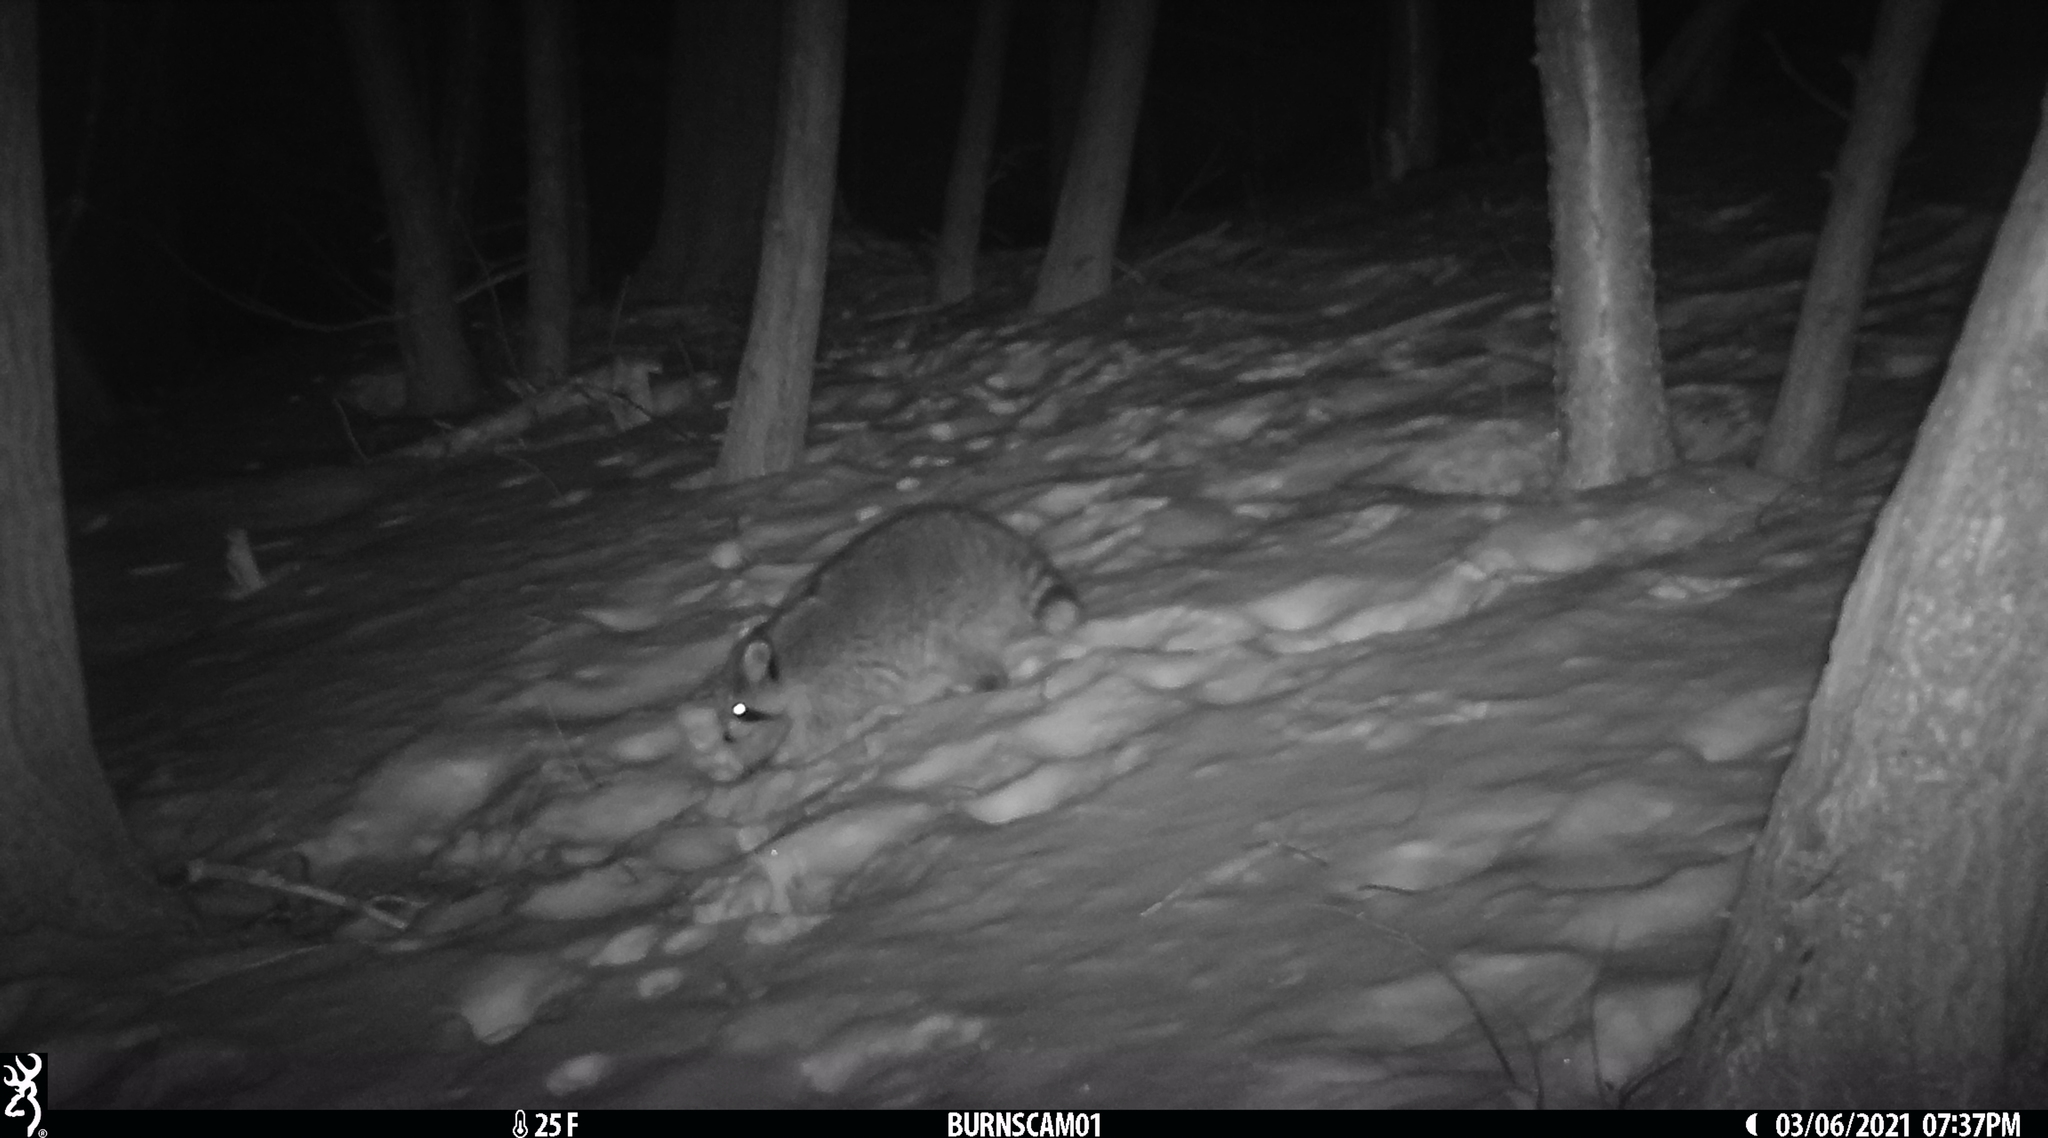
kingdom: Animalia
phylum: Chordata
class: Mammalia
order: Carnivora
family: Procyonidae
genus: Procyon
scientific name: Procyon lotor
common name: Raccoon
